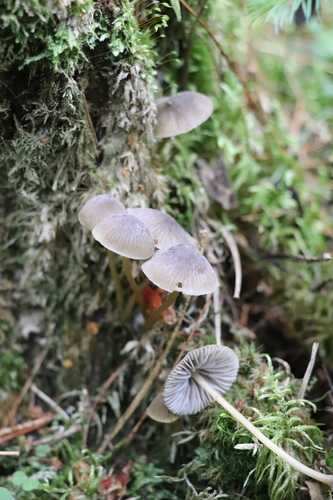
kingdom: Fungi
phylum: Basidiomycota
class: Agaricomycetes
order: Agaricales
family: Mycenaceae
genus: Mycena
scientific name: Mycena viridimarginata
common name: Olive edge bonnet
